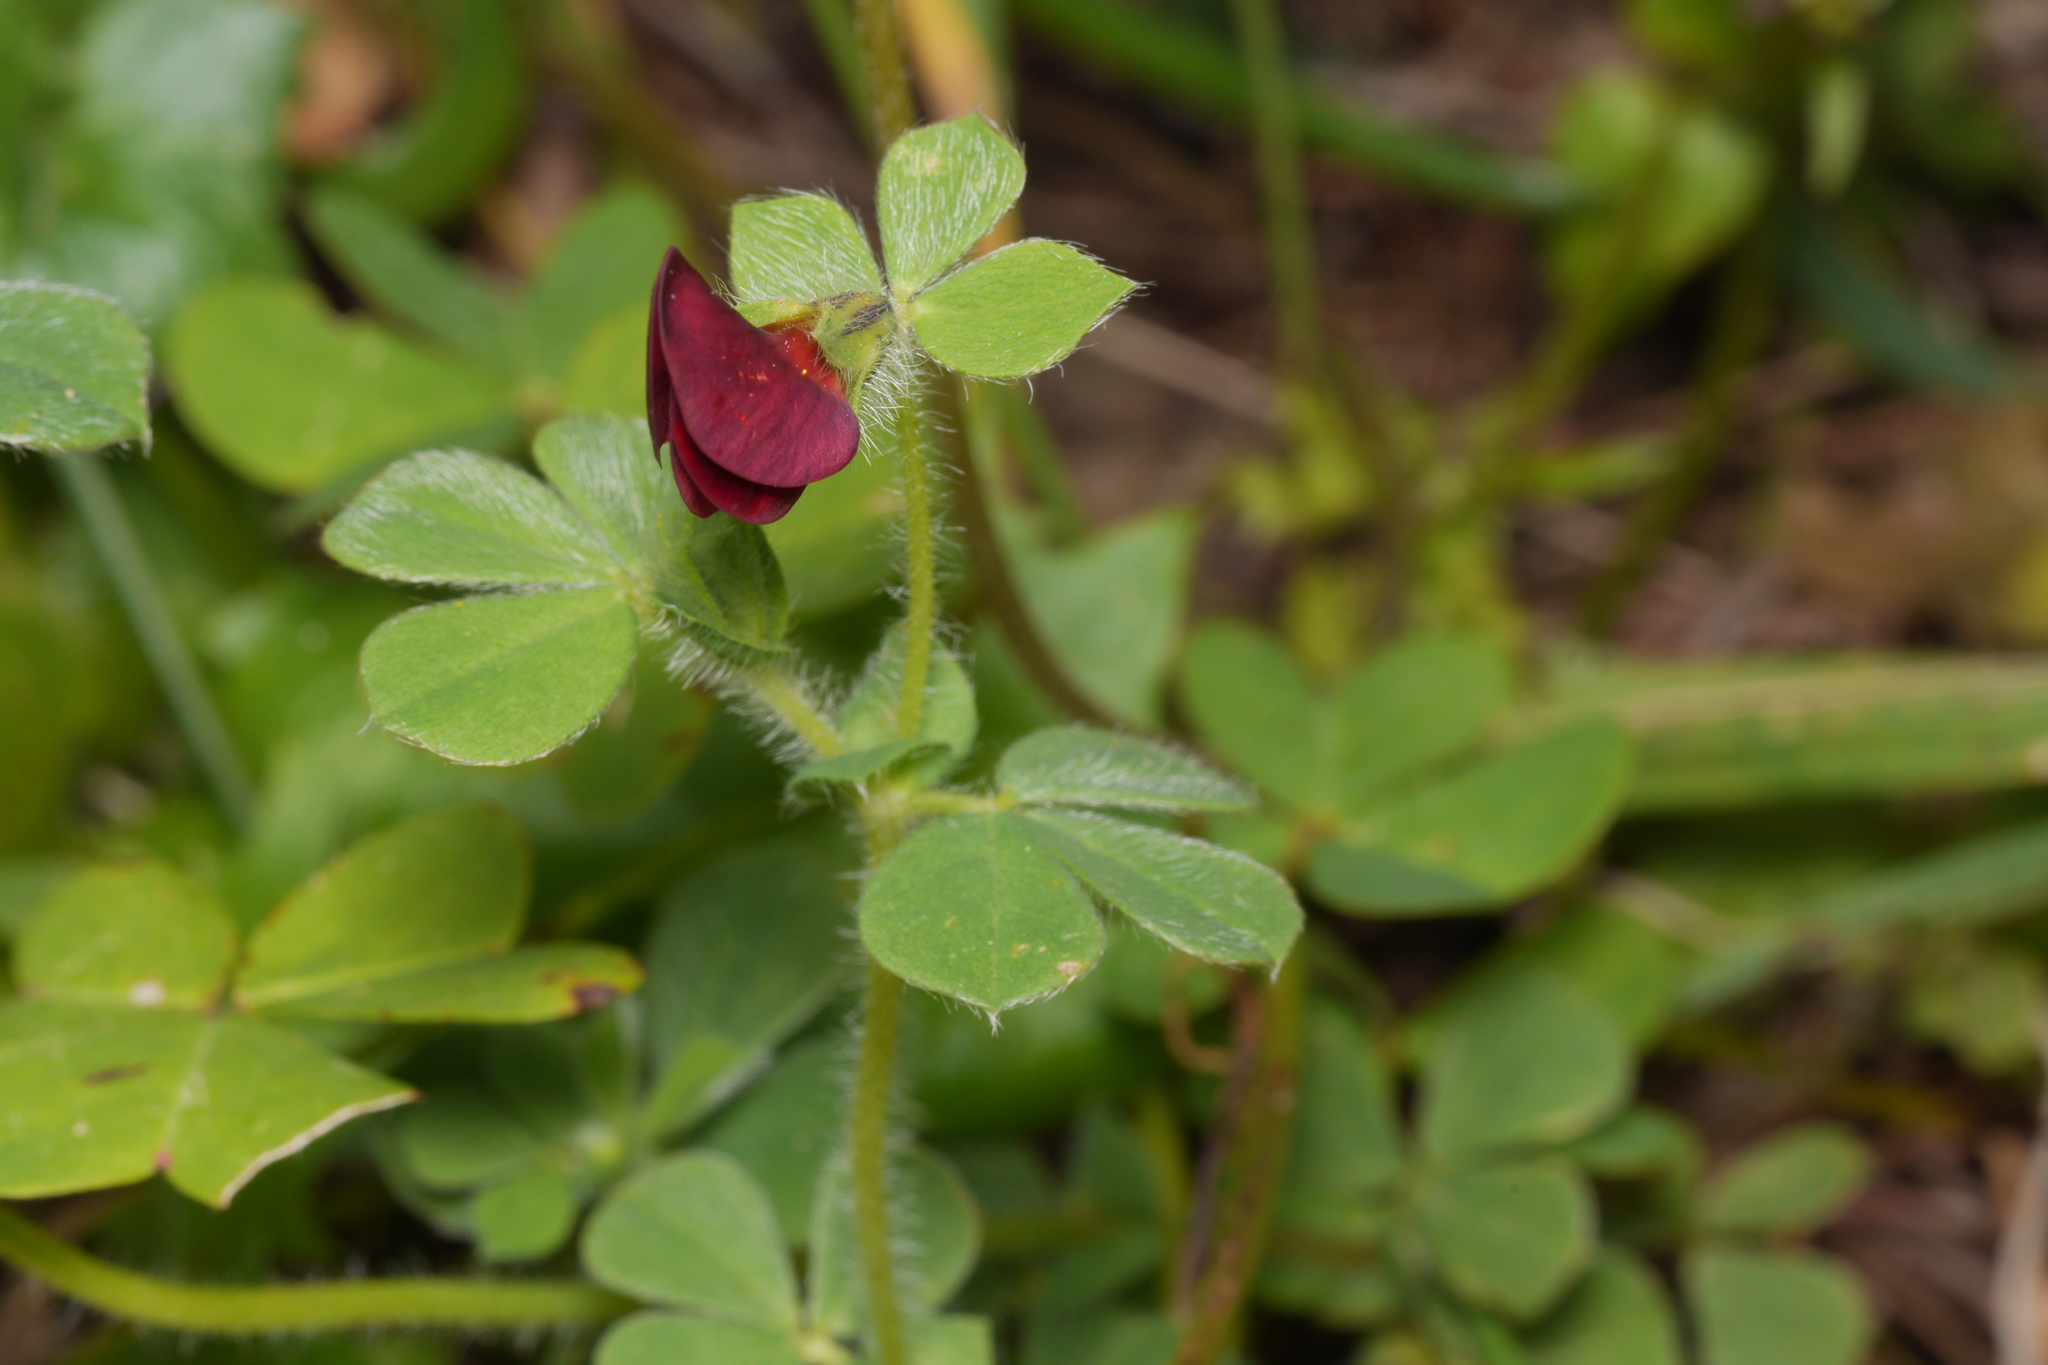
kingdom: Plantae
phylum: Tracheophyta
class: Magnoliopsida
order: Fabales
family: Fabaceae
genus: Lotus
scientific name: Lotus tetragonolobus
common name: Asparagus-pea
